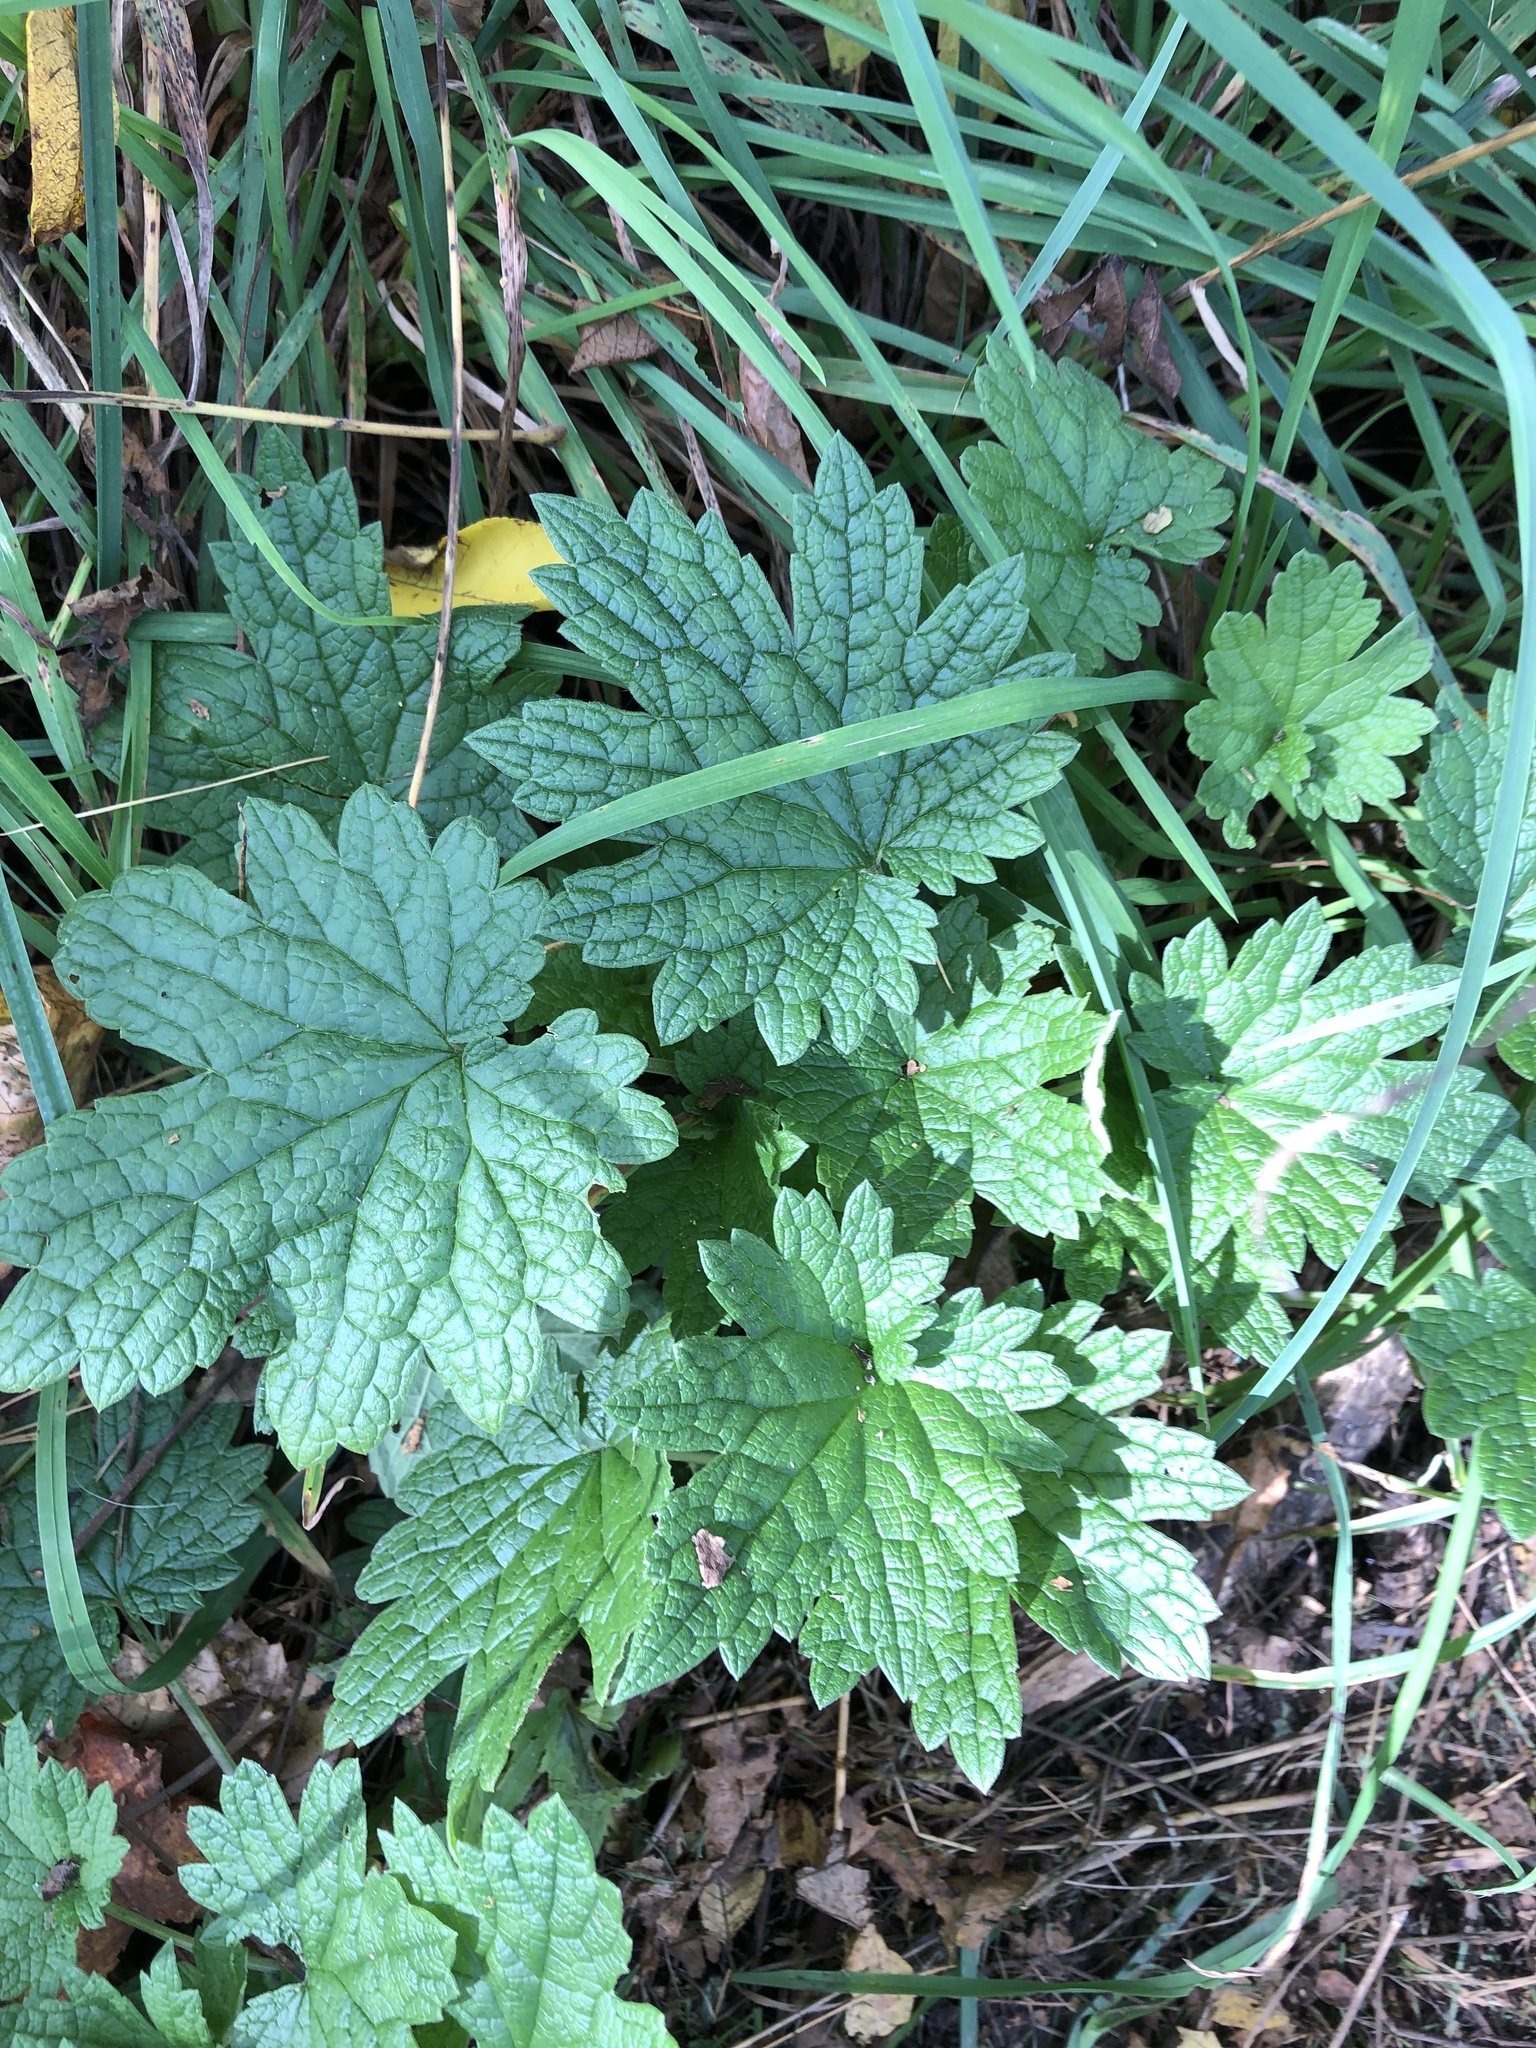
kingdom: Plantae
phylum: Tracheophyta
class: Magnoliopsida
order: Lamiales
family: Lamiaceae
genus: Leonurus
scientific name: Leonurus cardiaca
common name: Motherwort
